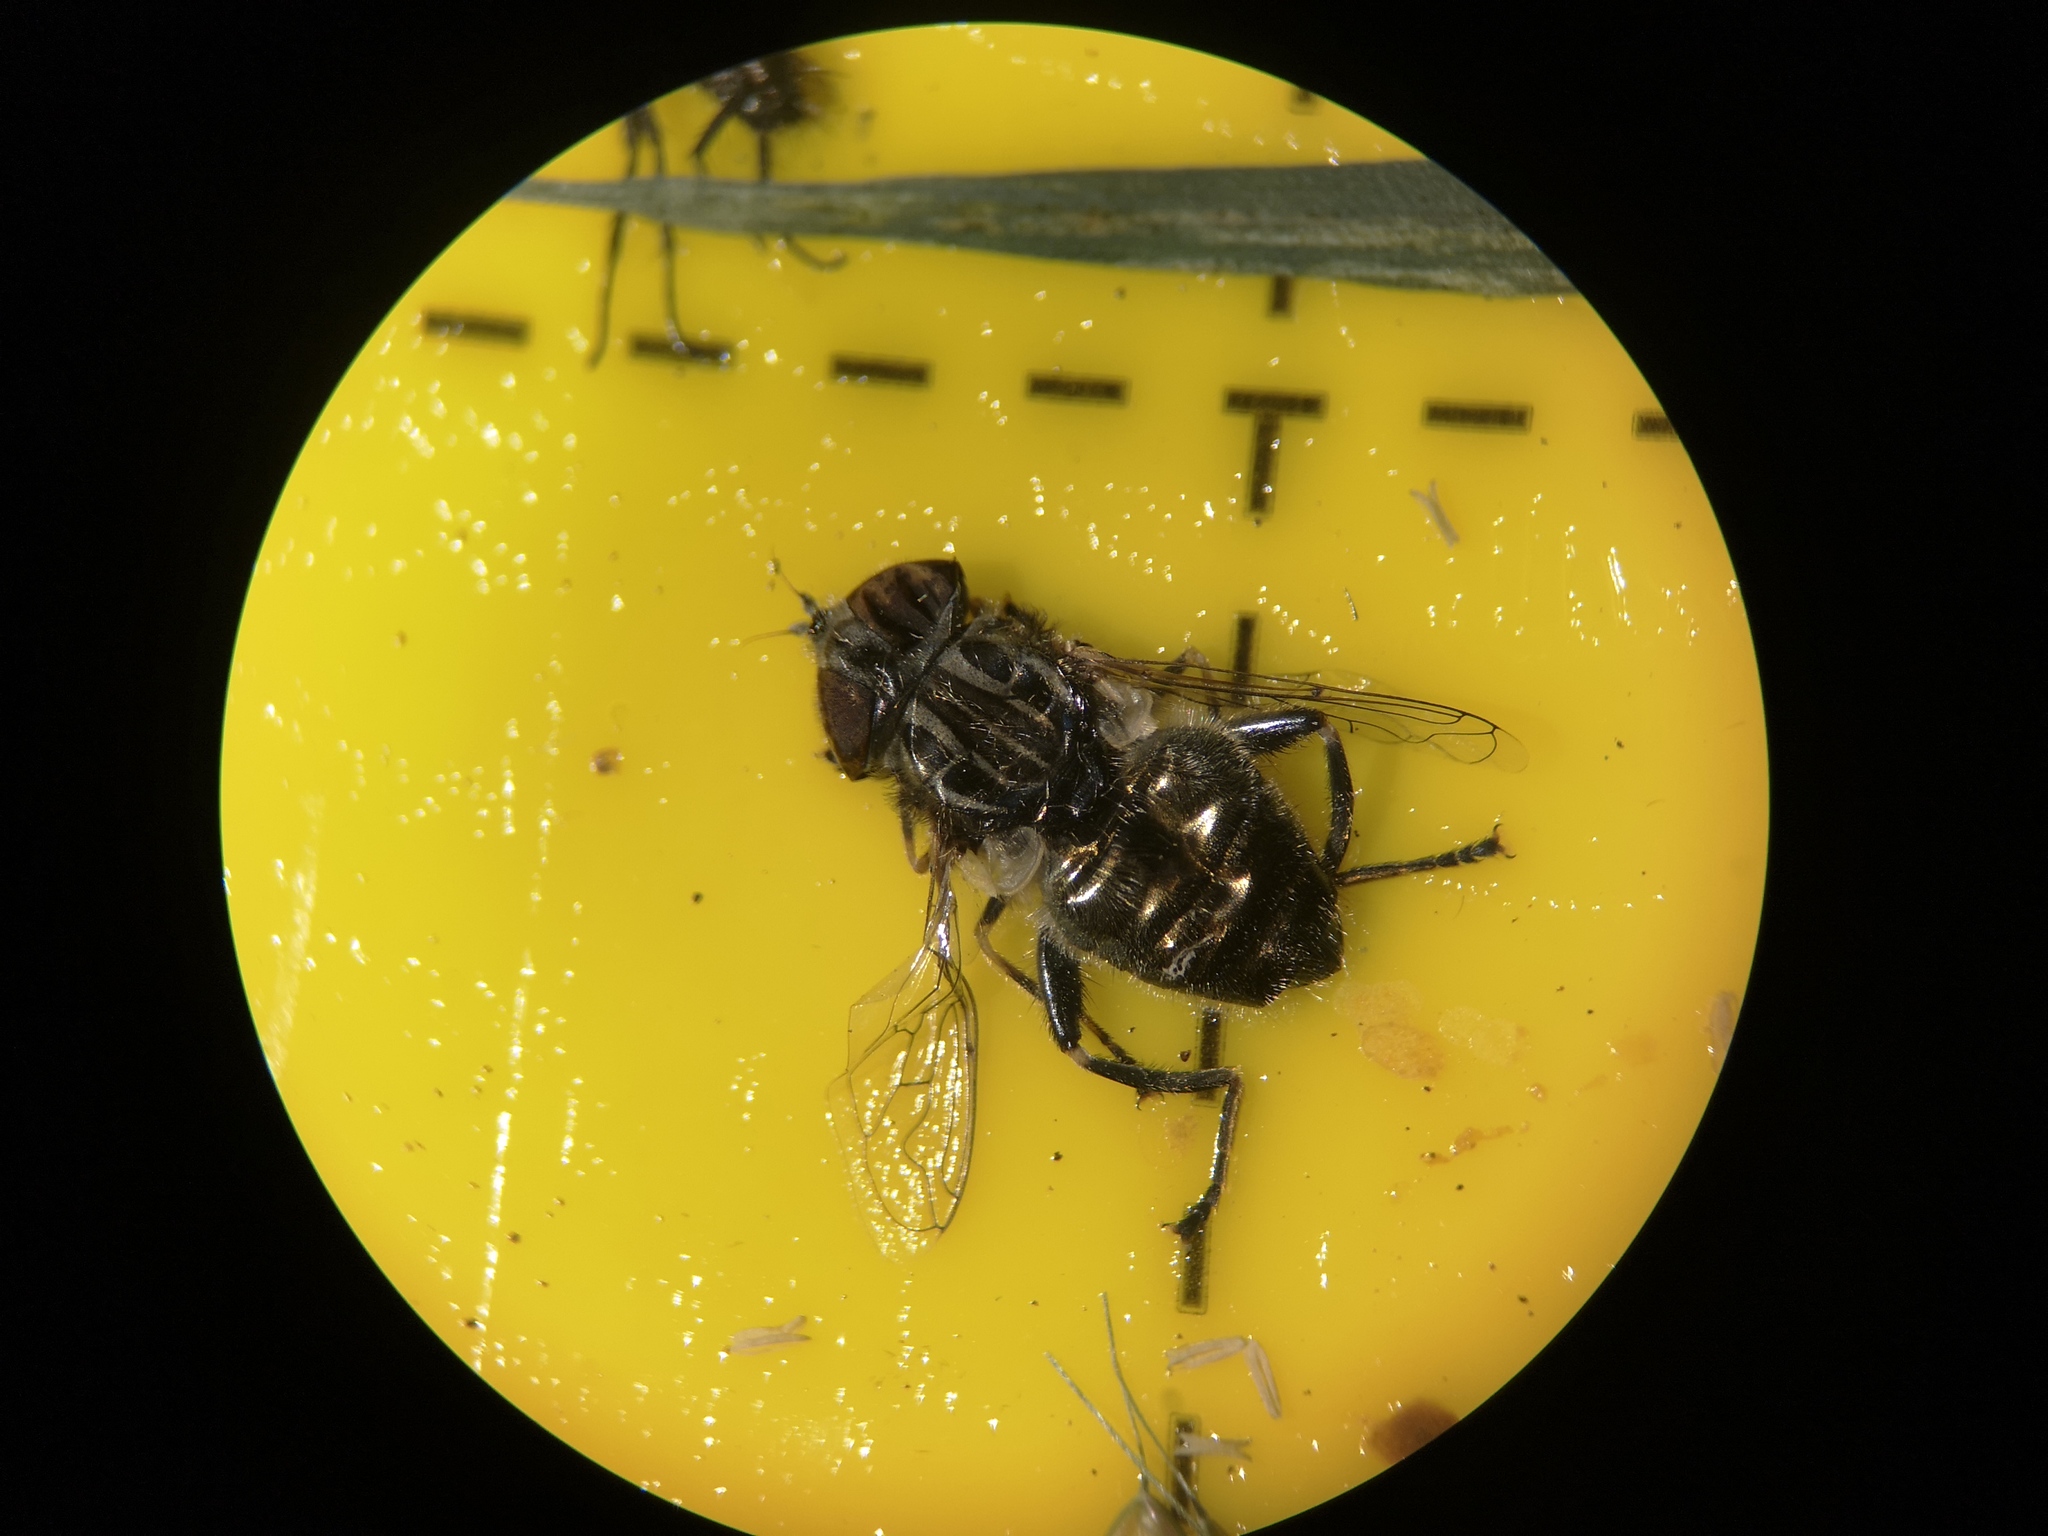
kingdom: Animalia
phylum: Arthropoda
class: Insecta
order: Diptera
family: Syrphidae
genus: Eristalinus
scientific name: Eristalinus sepulchralis
